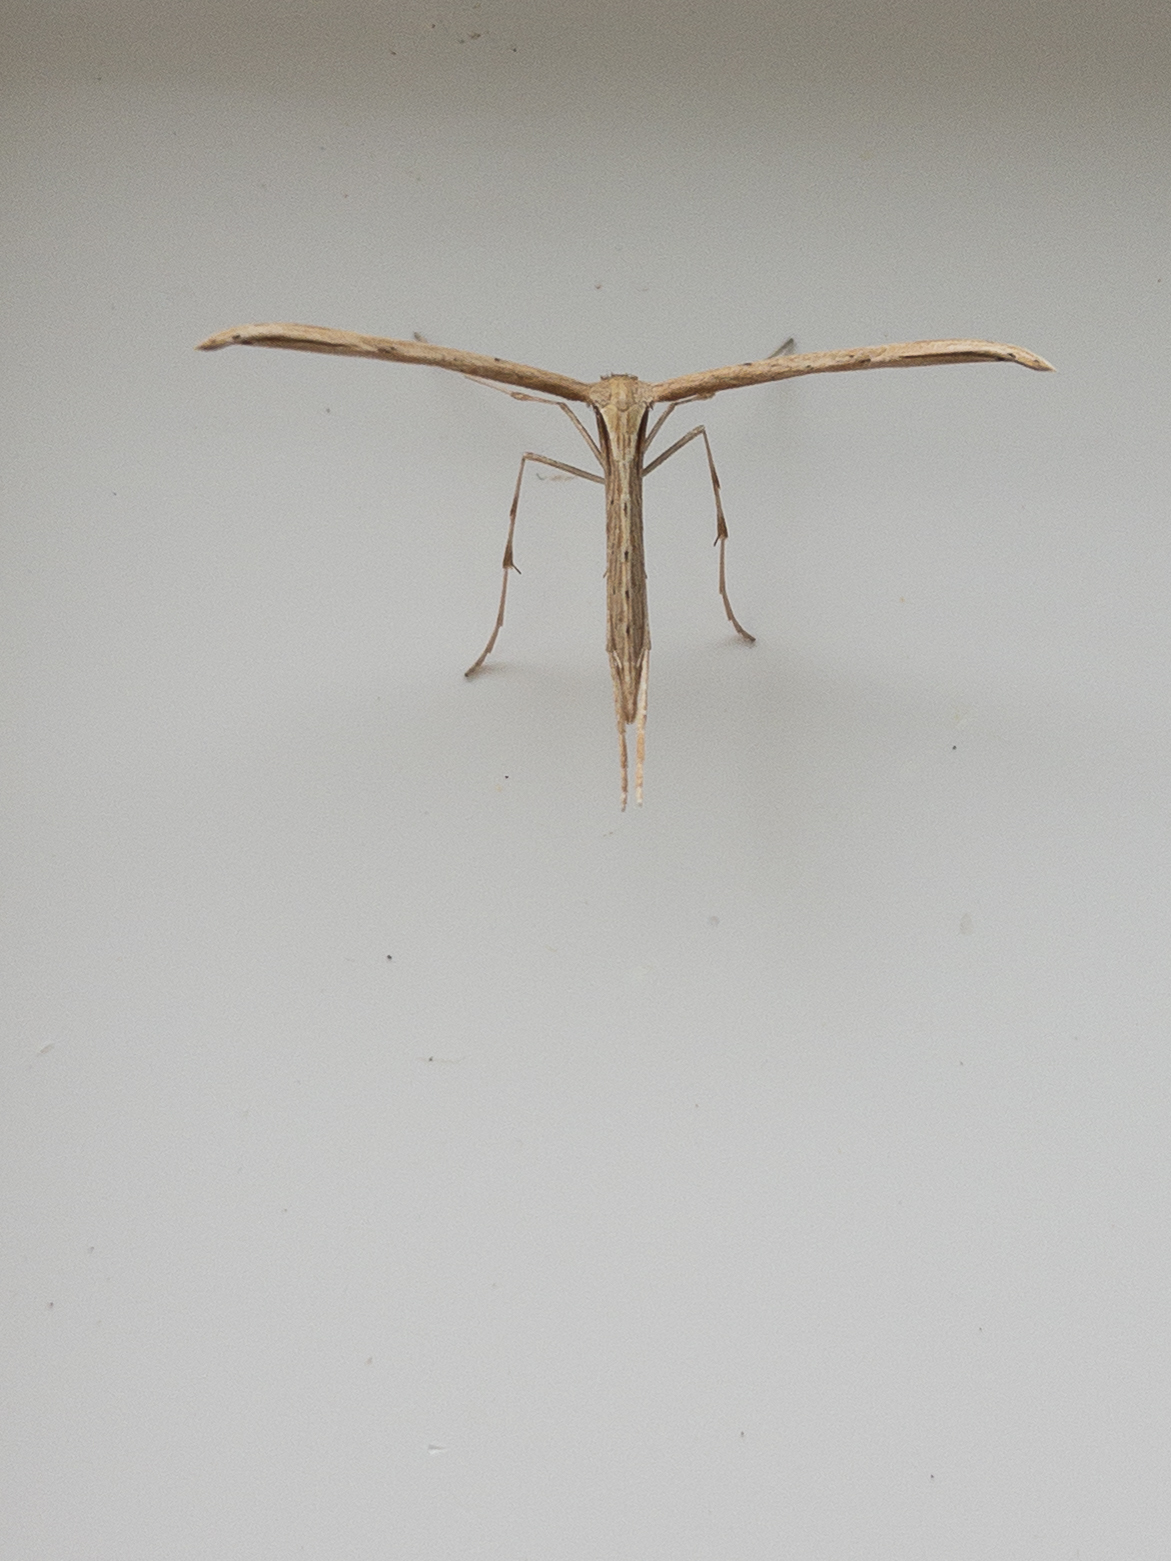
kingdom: Animalia
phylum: Arthropoda
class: Insecta
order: Lepidoptera
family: Pterophoridae
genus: Emmelina
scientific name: Emmelina monodactyla
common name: Common plume
